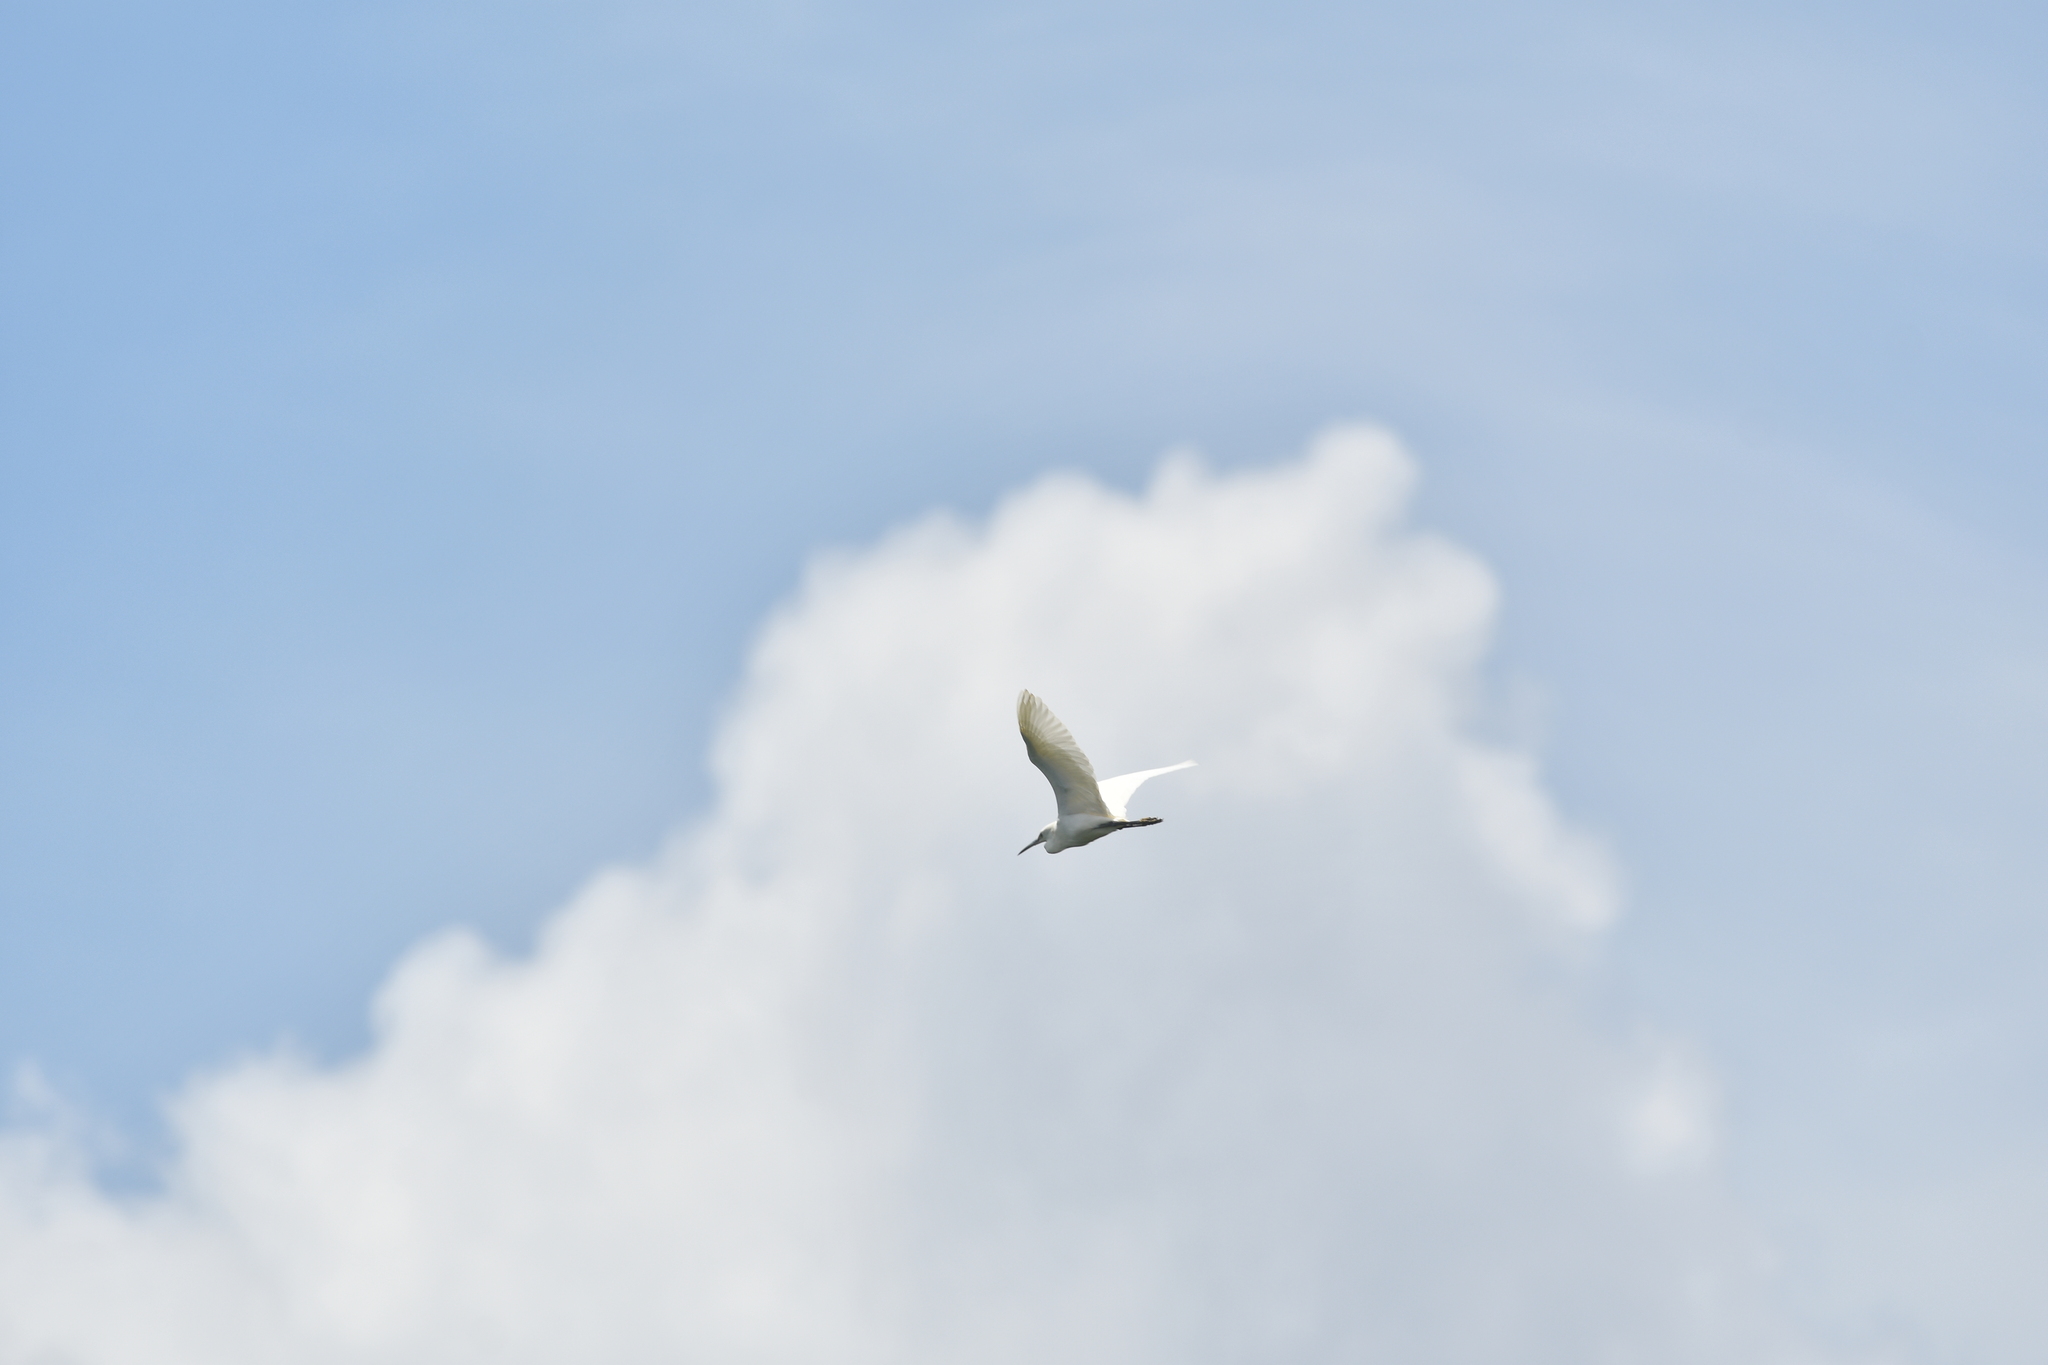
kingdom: Animalia
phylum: Chordata
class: Aves
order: Pelecaniformes
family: Ardeidae
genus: Egretta
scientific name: Egretta garzetta
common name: Little egret
